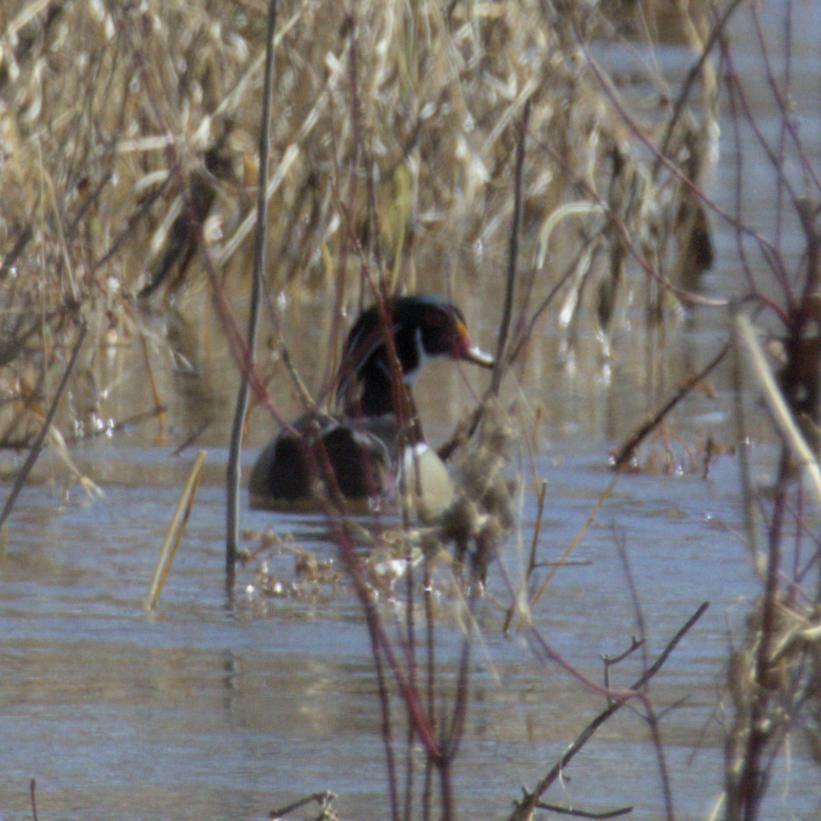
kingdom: Animalia
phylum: Chordata
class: Aves
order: Anseriformes
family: Anatidae
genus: Aix
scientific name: Aix sponsa
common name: Wood duck
